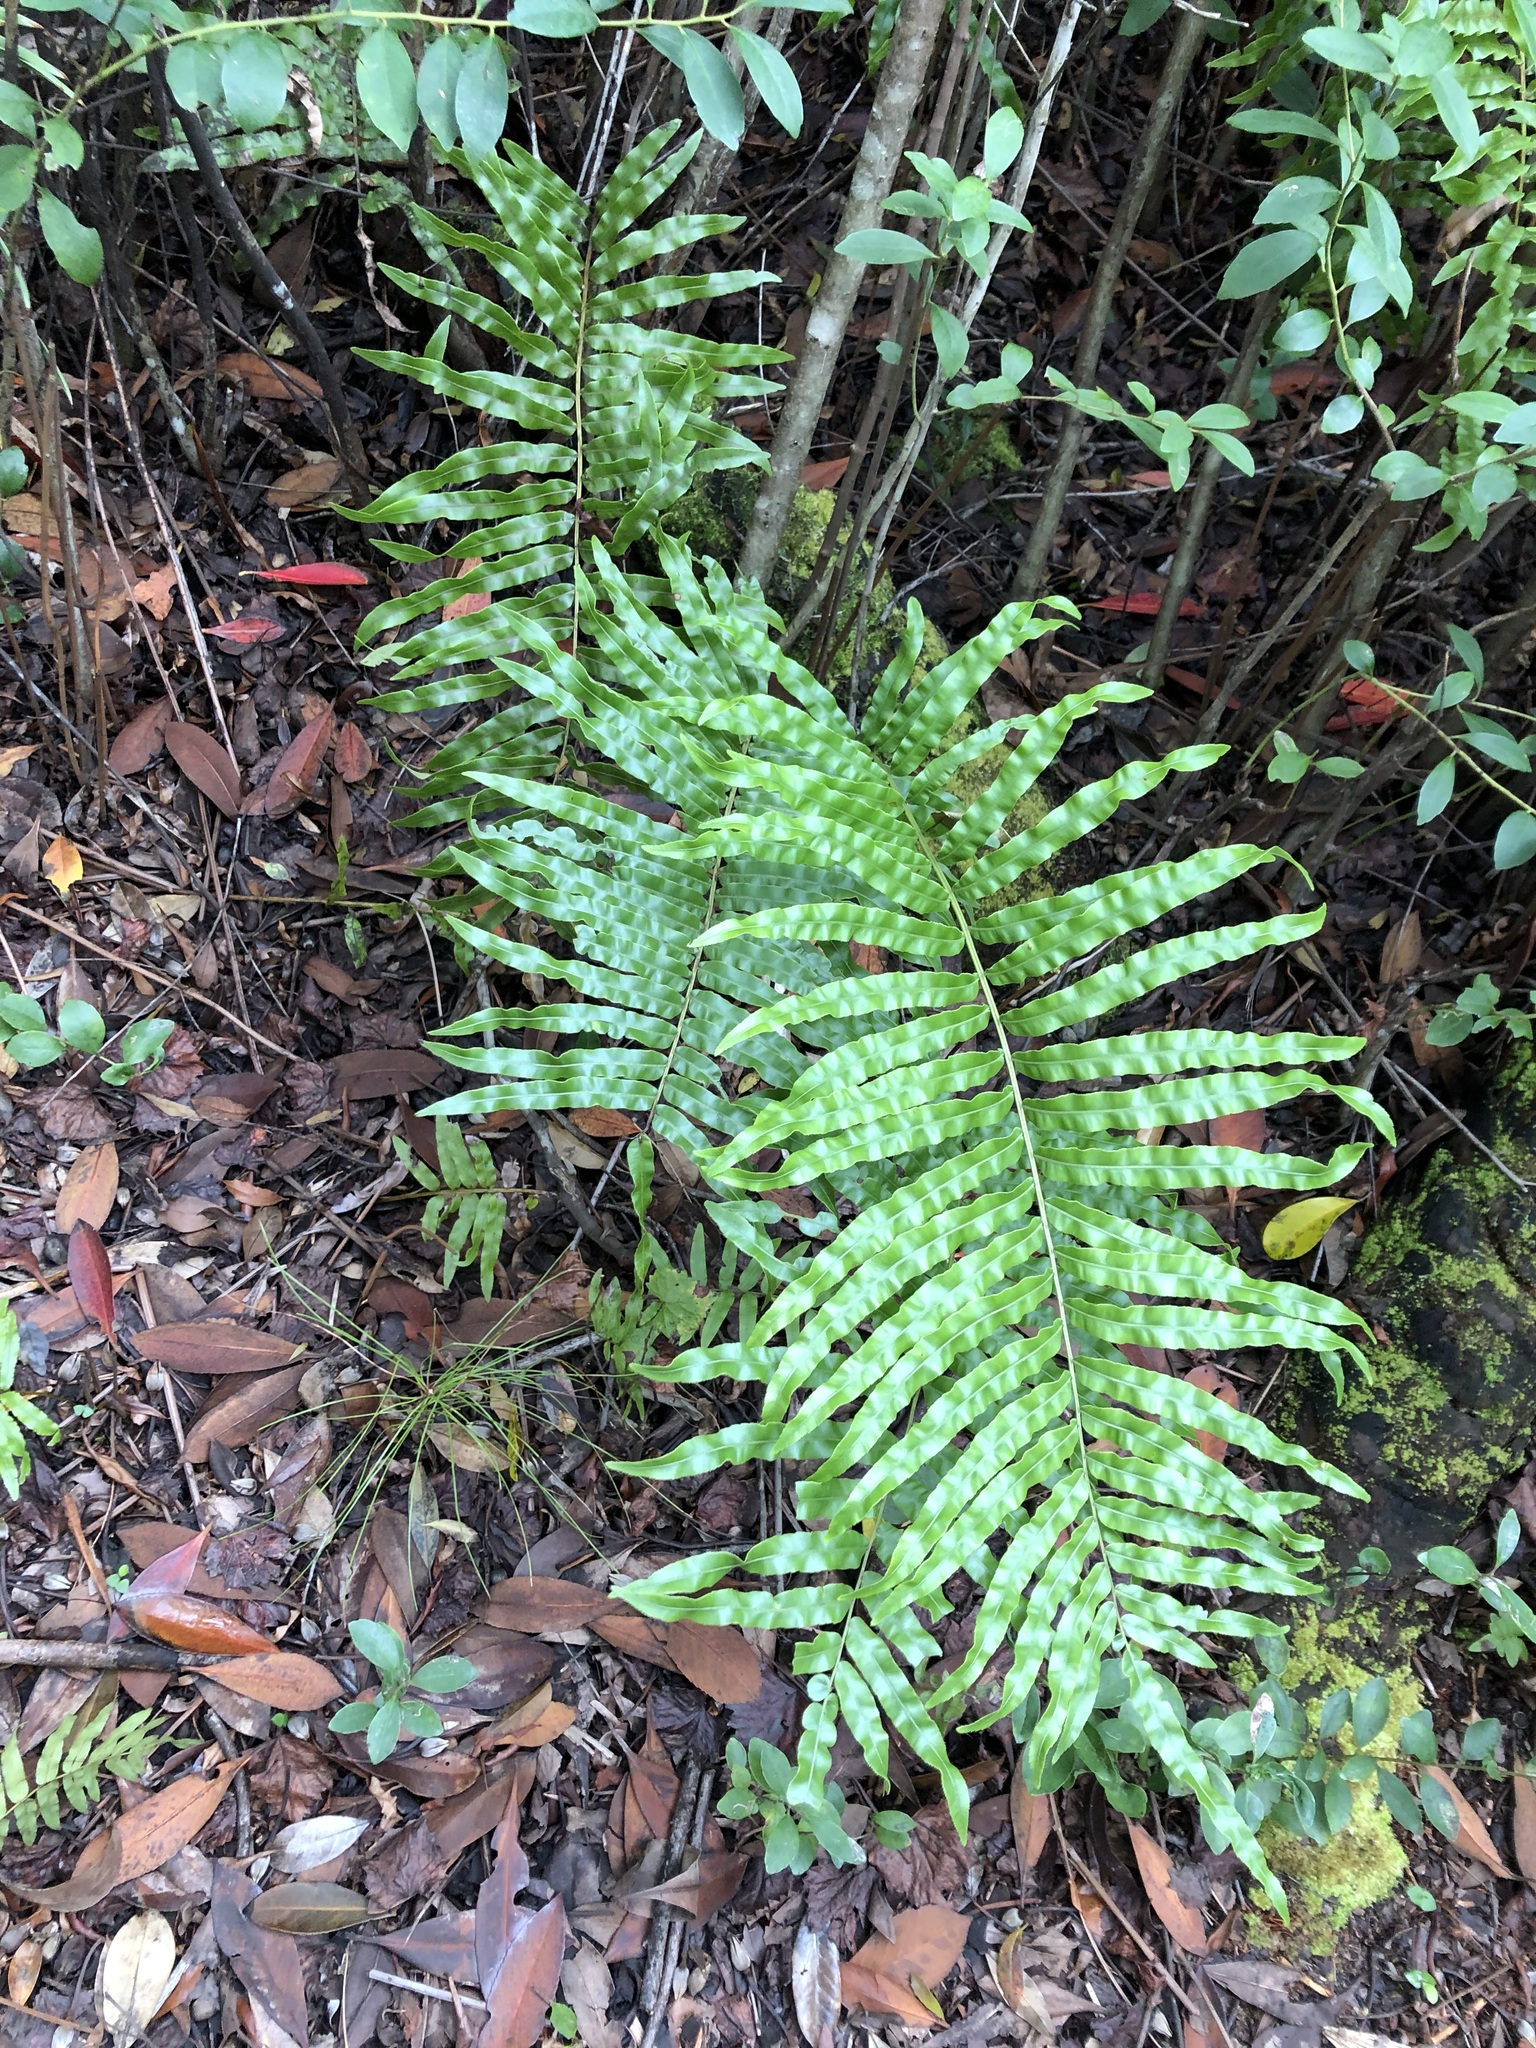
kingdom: Plantae
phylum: Tracheophyta
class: Polypodiopsida
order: Polypodiales
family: Blechnaceae
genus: Telmatoblechnum
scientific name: Telmatoblechnum serrulatum
